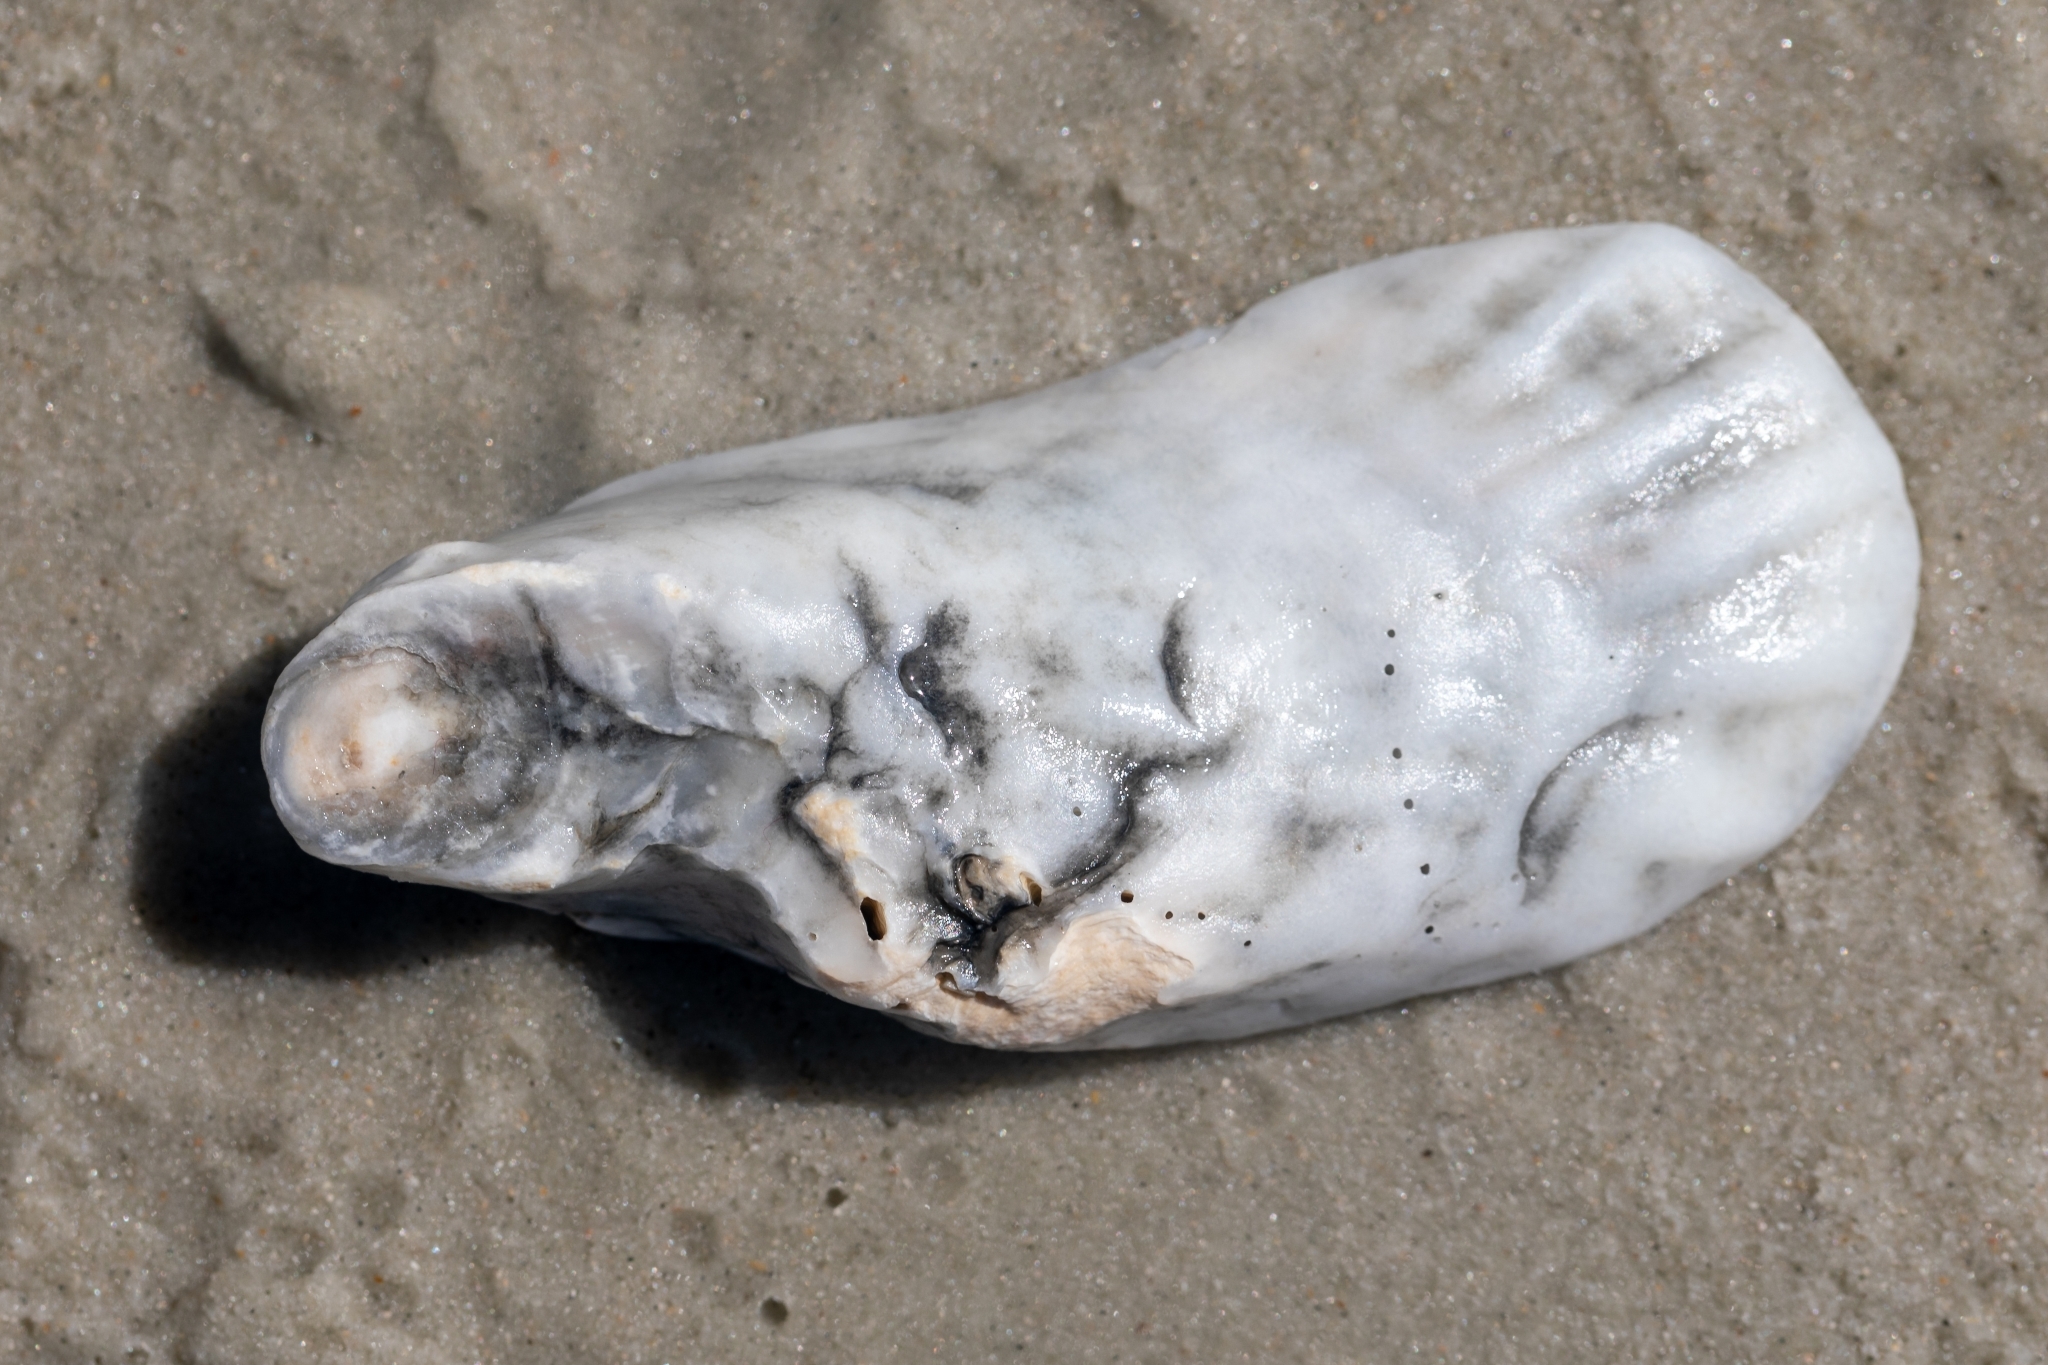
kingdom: Animalia
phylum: Mollusca
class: Bivalvia
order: Ostreida
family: Ostreidae
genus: Crassostrea
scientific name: Crassostrea virginica
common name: American oyster
